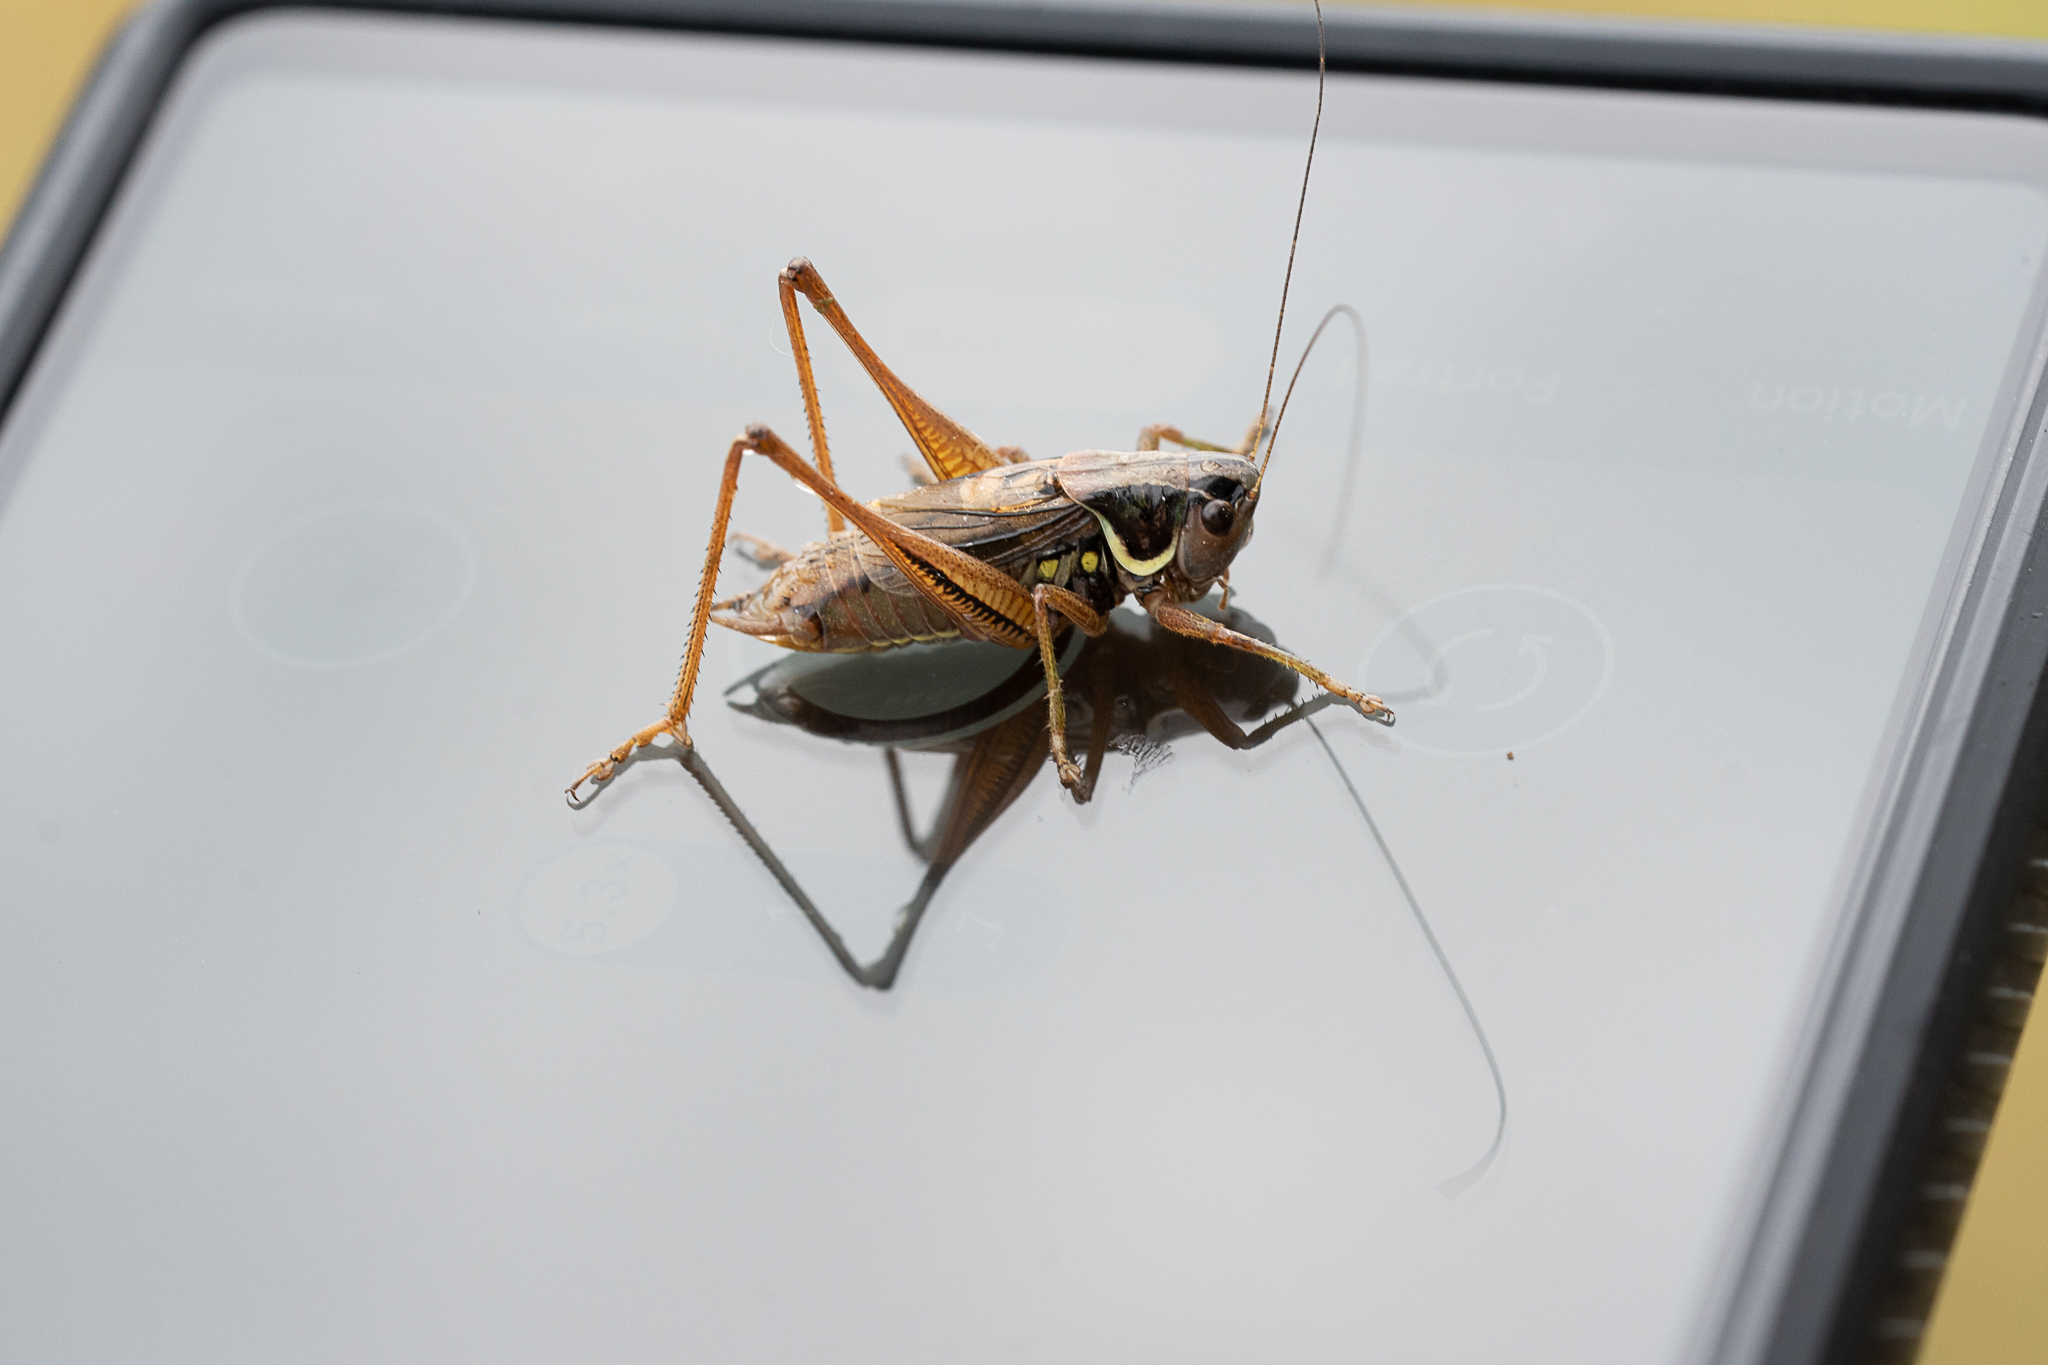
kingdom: Animalia
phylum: Arthropoda
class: Insecta
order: Orthoptera
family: Tettigoniidae
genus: Roeseliana
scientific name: Roeseliana roeselii
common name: Roesel's bush cricket
